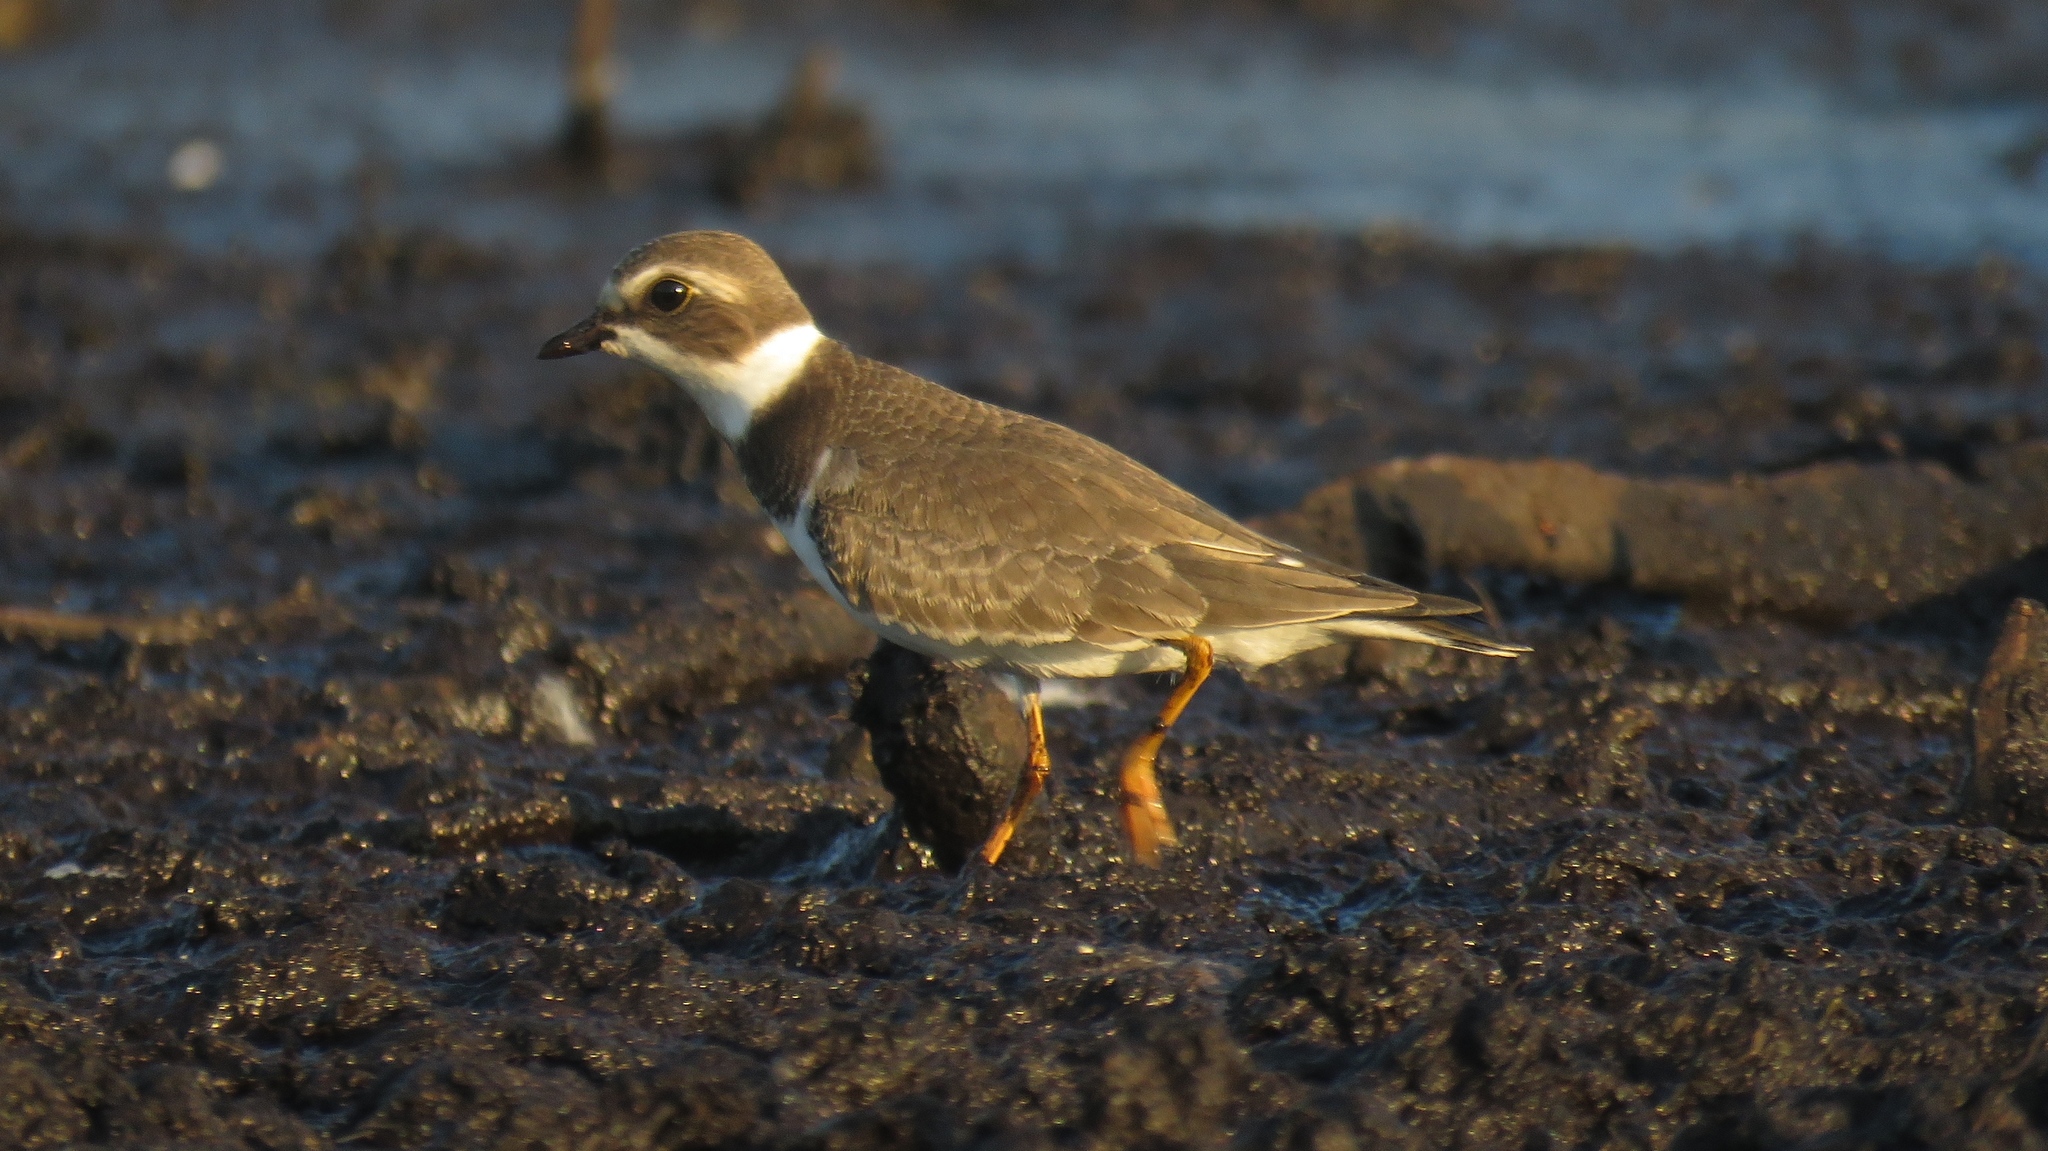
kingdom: Animalia
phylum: Chordata
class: Aves
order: Charadriiformes
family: Charadriidae
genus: Charadrius
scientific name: Charadrius semipalmatus
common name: Semipalmated plover
